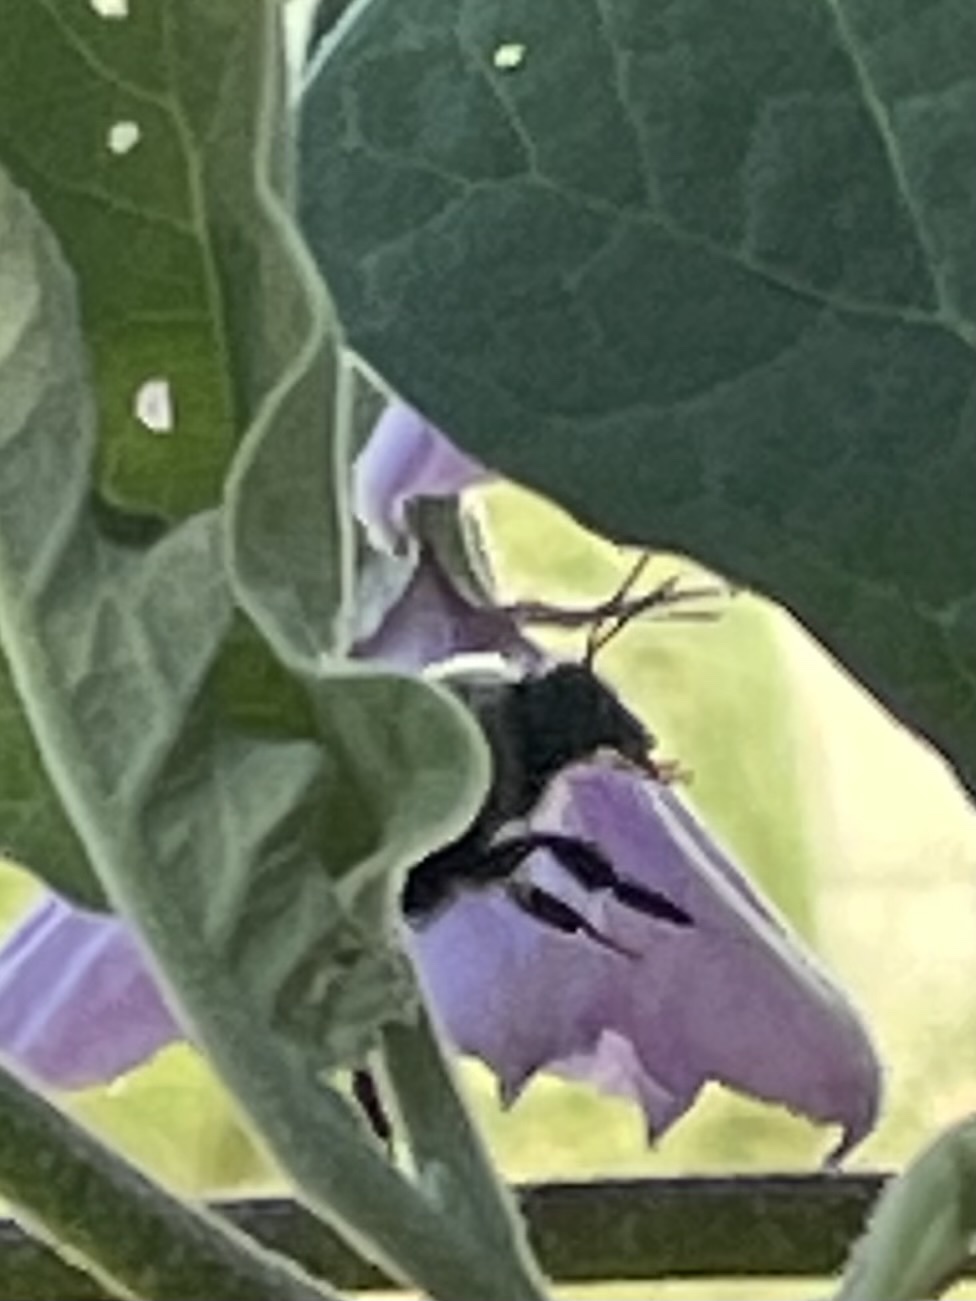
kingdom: Animalia
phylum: Arthropoda
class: Insecta
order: Hymenoptera
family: Apidae
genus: Bombus
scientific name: Bombus impatiens
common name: Common eastern bumble bee
